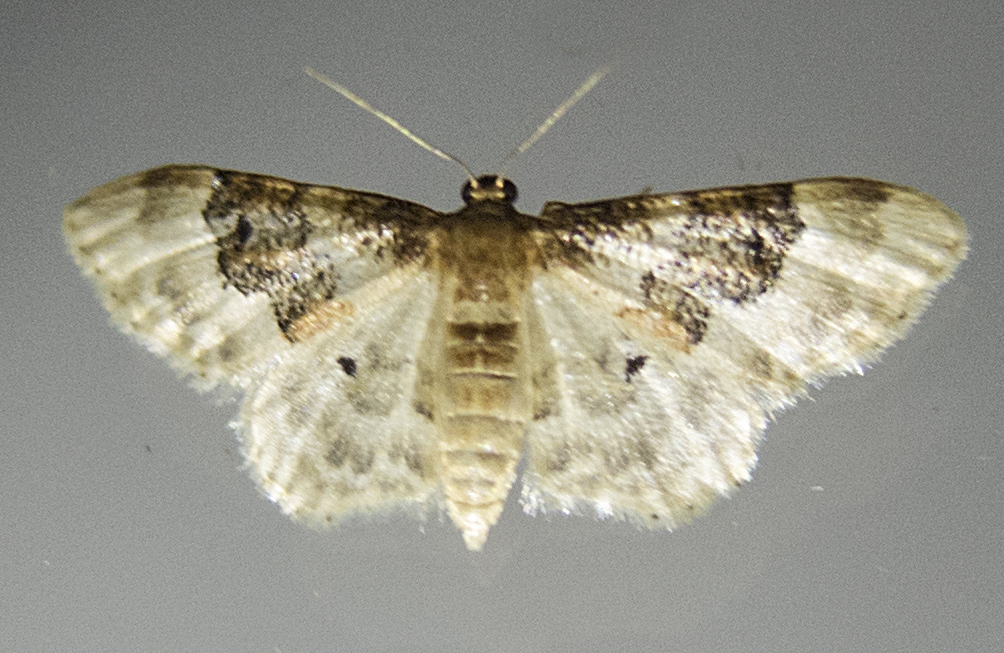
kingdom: Animalia
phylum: Arthropoda
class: Insecta
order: Lepidoptera
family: Geometridae
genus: Idaea
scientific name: Idaea rusticata
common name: Least carpet
